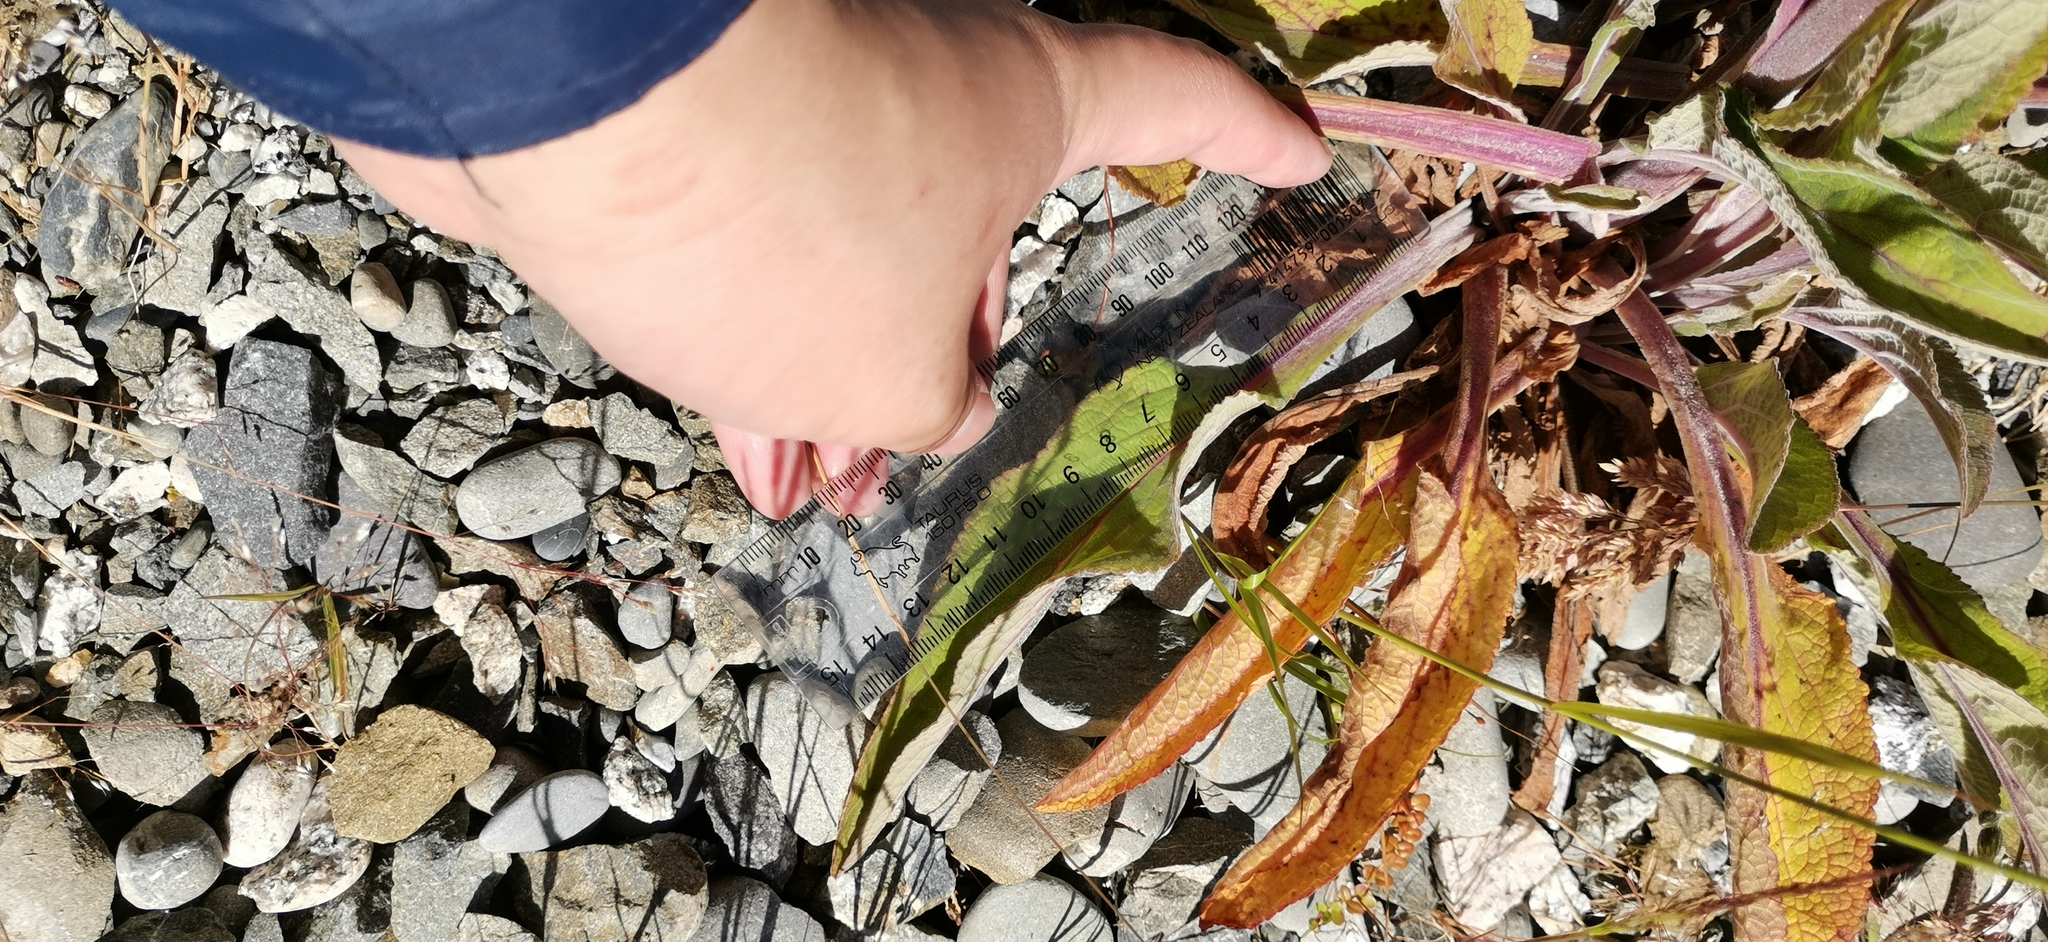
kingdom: Plantae
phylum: Tracheophyta
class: Magnoliopsida
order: Lamiales
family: Plantaginaceae
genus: Digitalis
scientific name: Digitalis purpurea
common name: Foxglove
